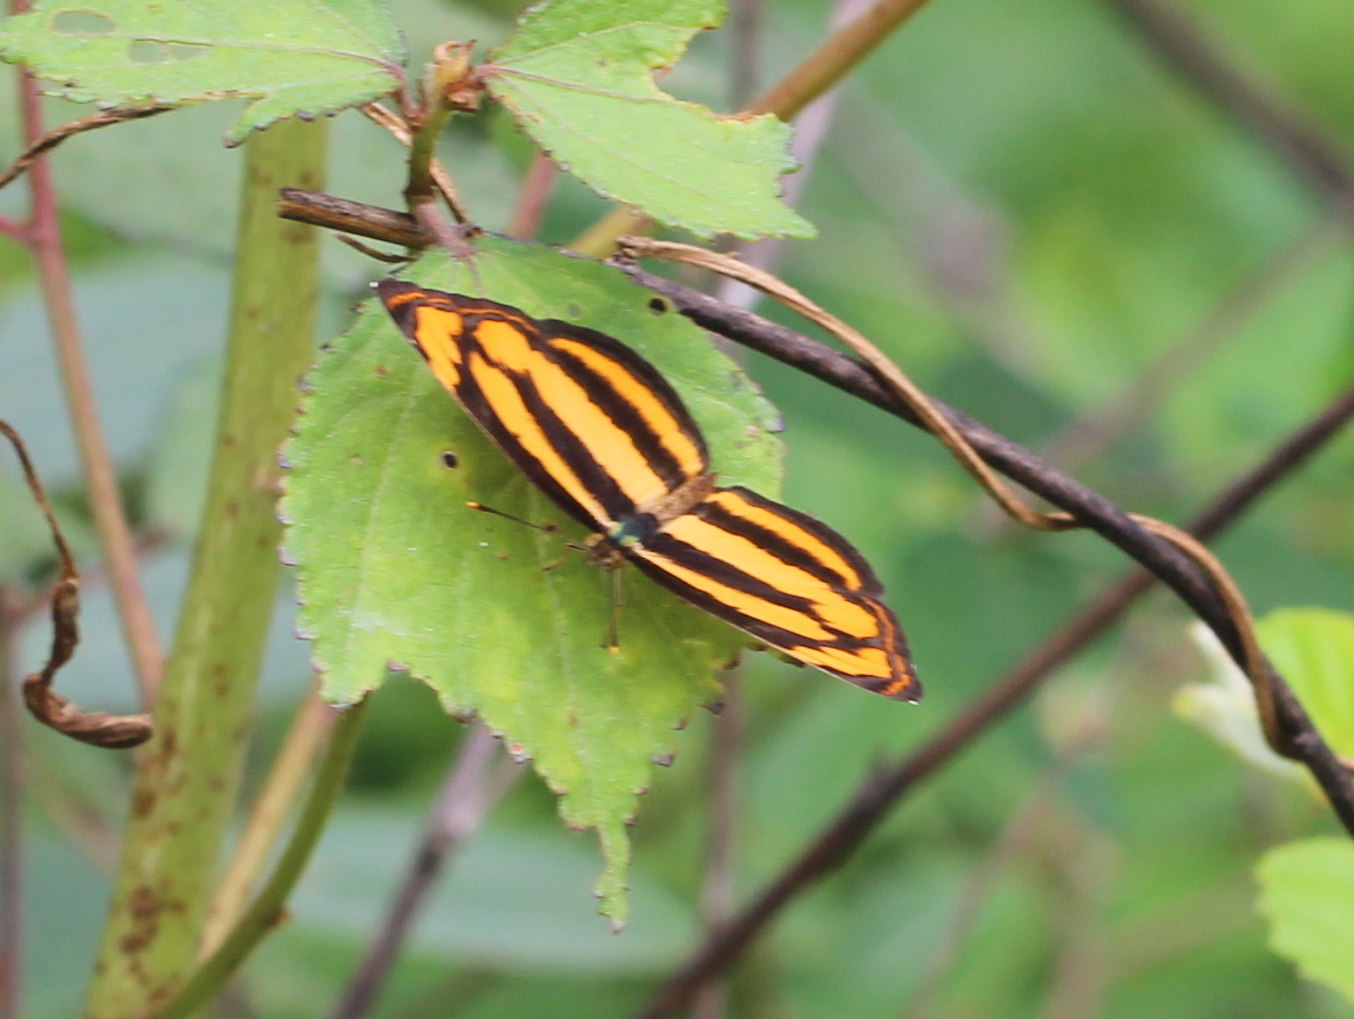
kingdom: Animalia
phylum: Arthropoda
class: Insecta
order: Lepidoptera
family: Nymphalidae
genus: Pantoporia
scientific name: Pantoporia hordonia
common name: Common lascar
